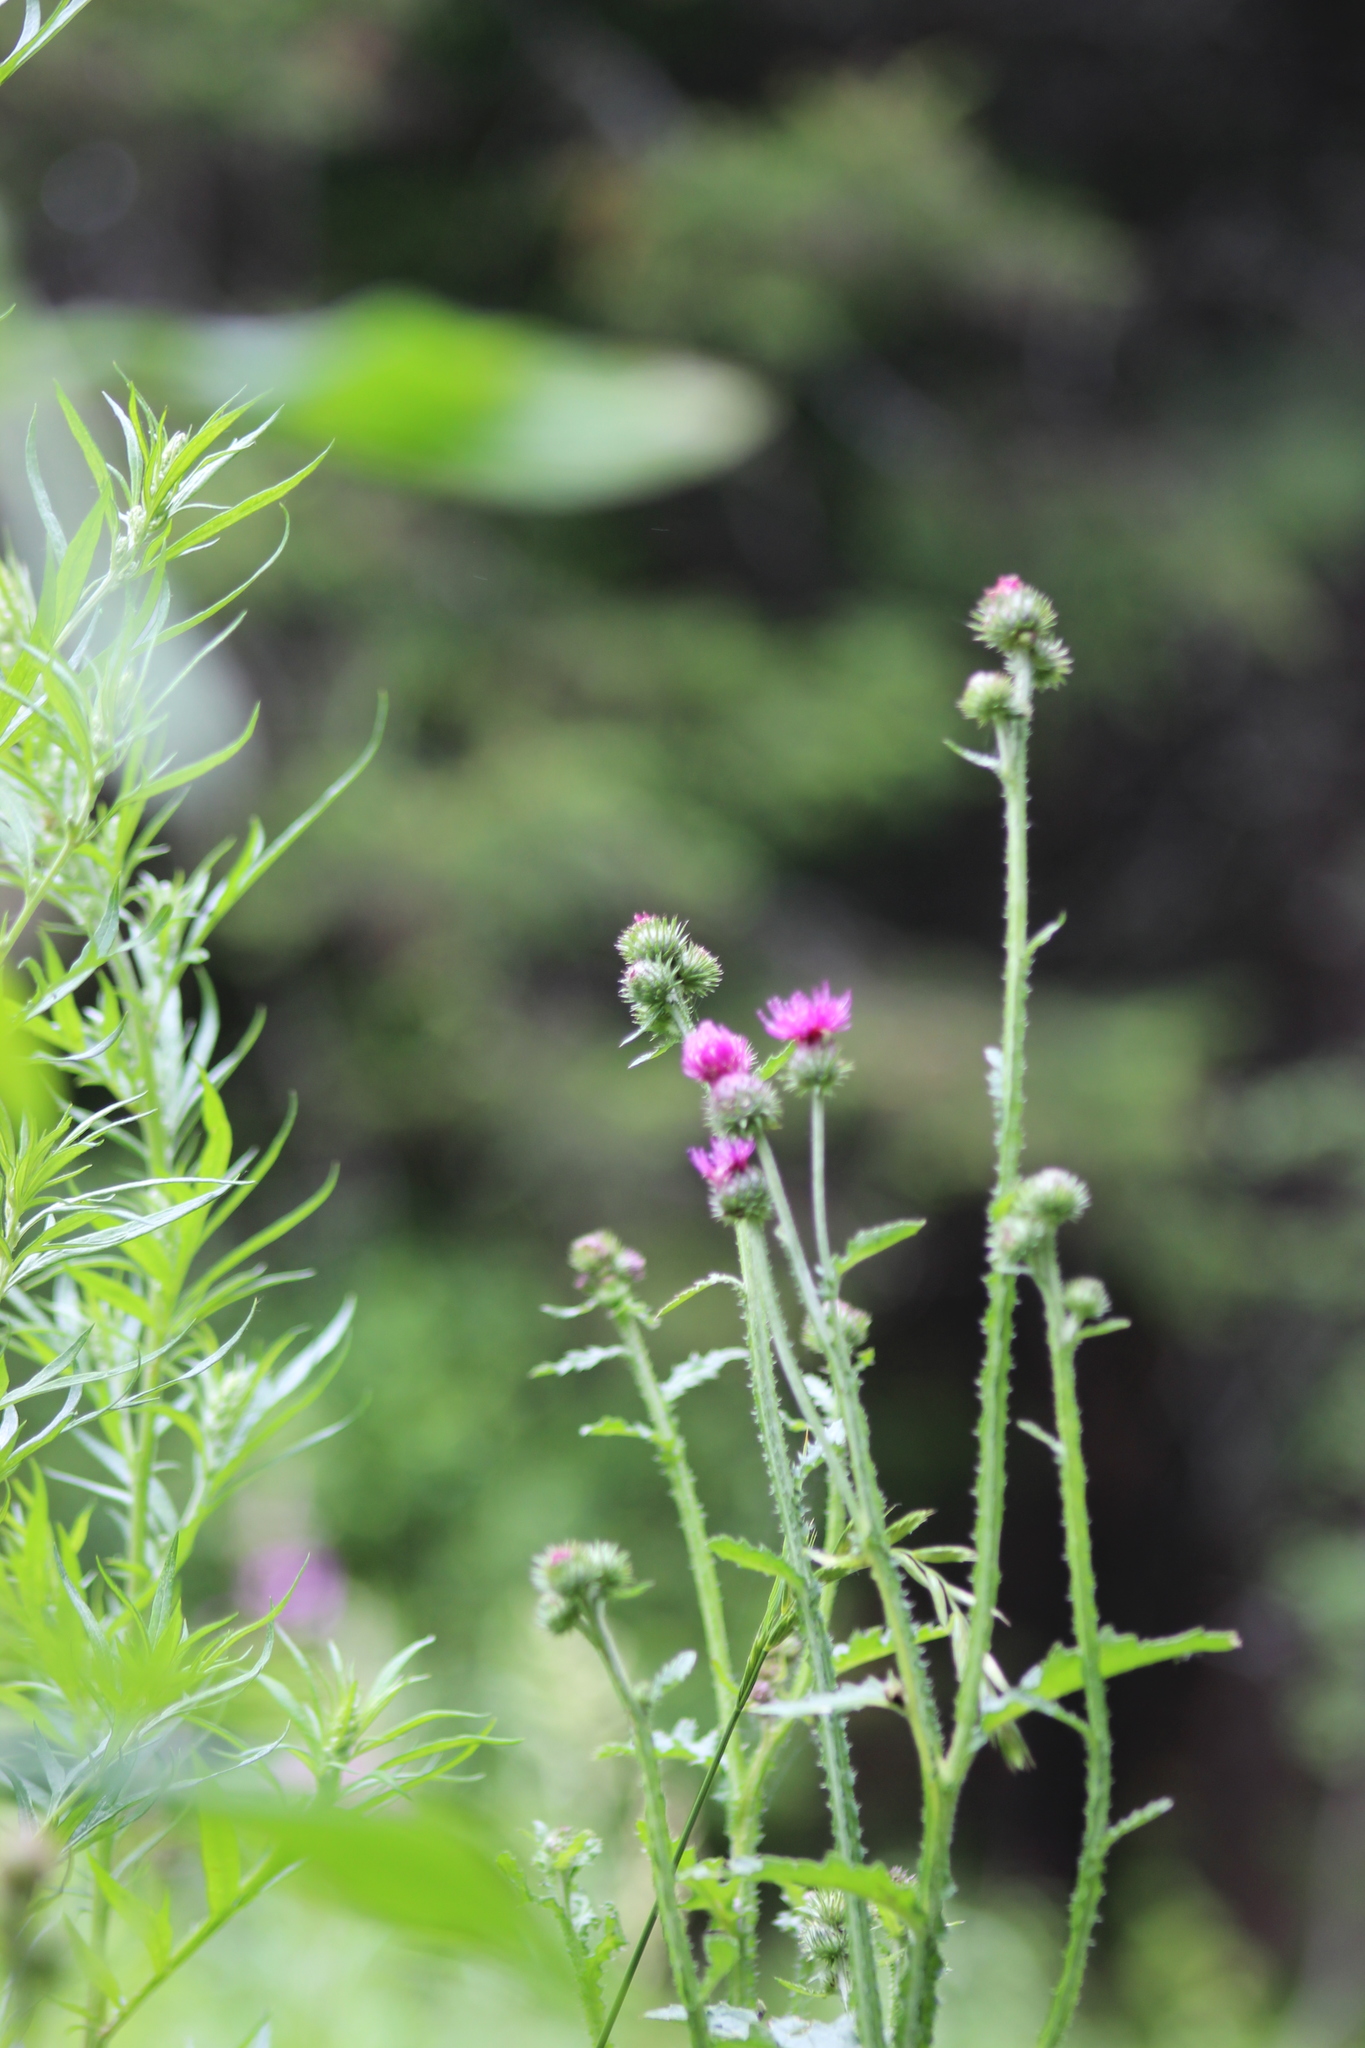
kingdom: Plantae
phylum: Tracheophyta
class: Magnoliopsida
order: Asterales
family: Asteraceae
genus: Carduus
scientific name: Carduus crispus
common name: Welted thistle
